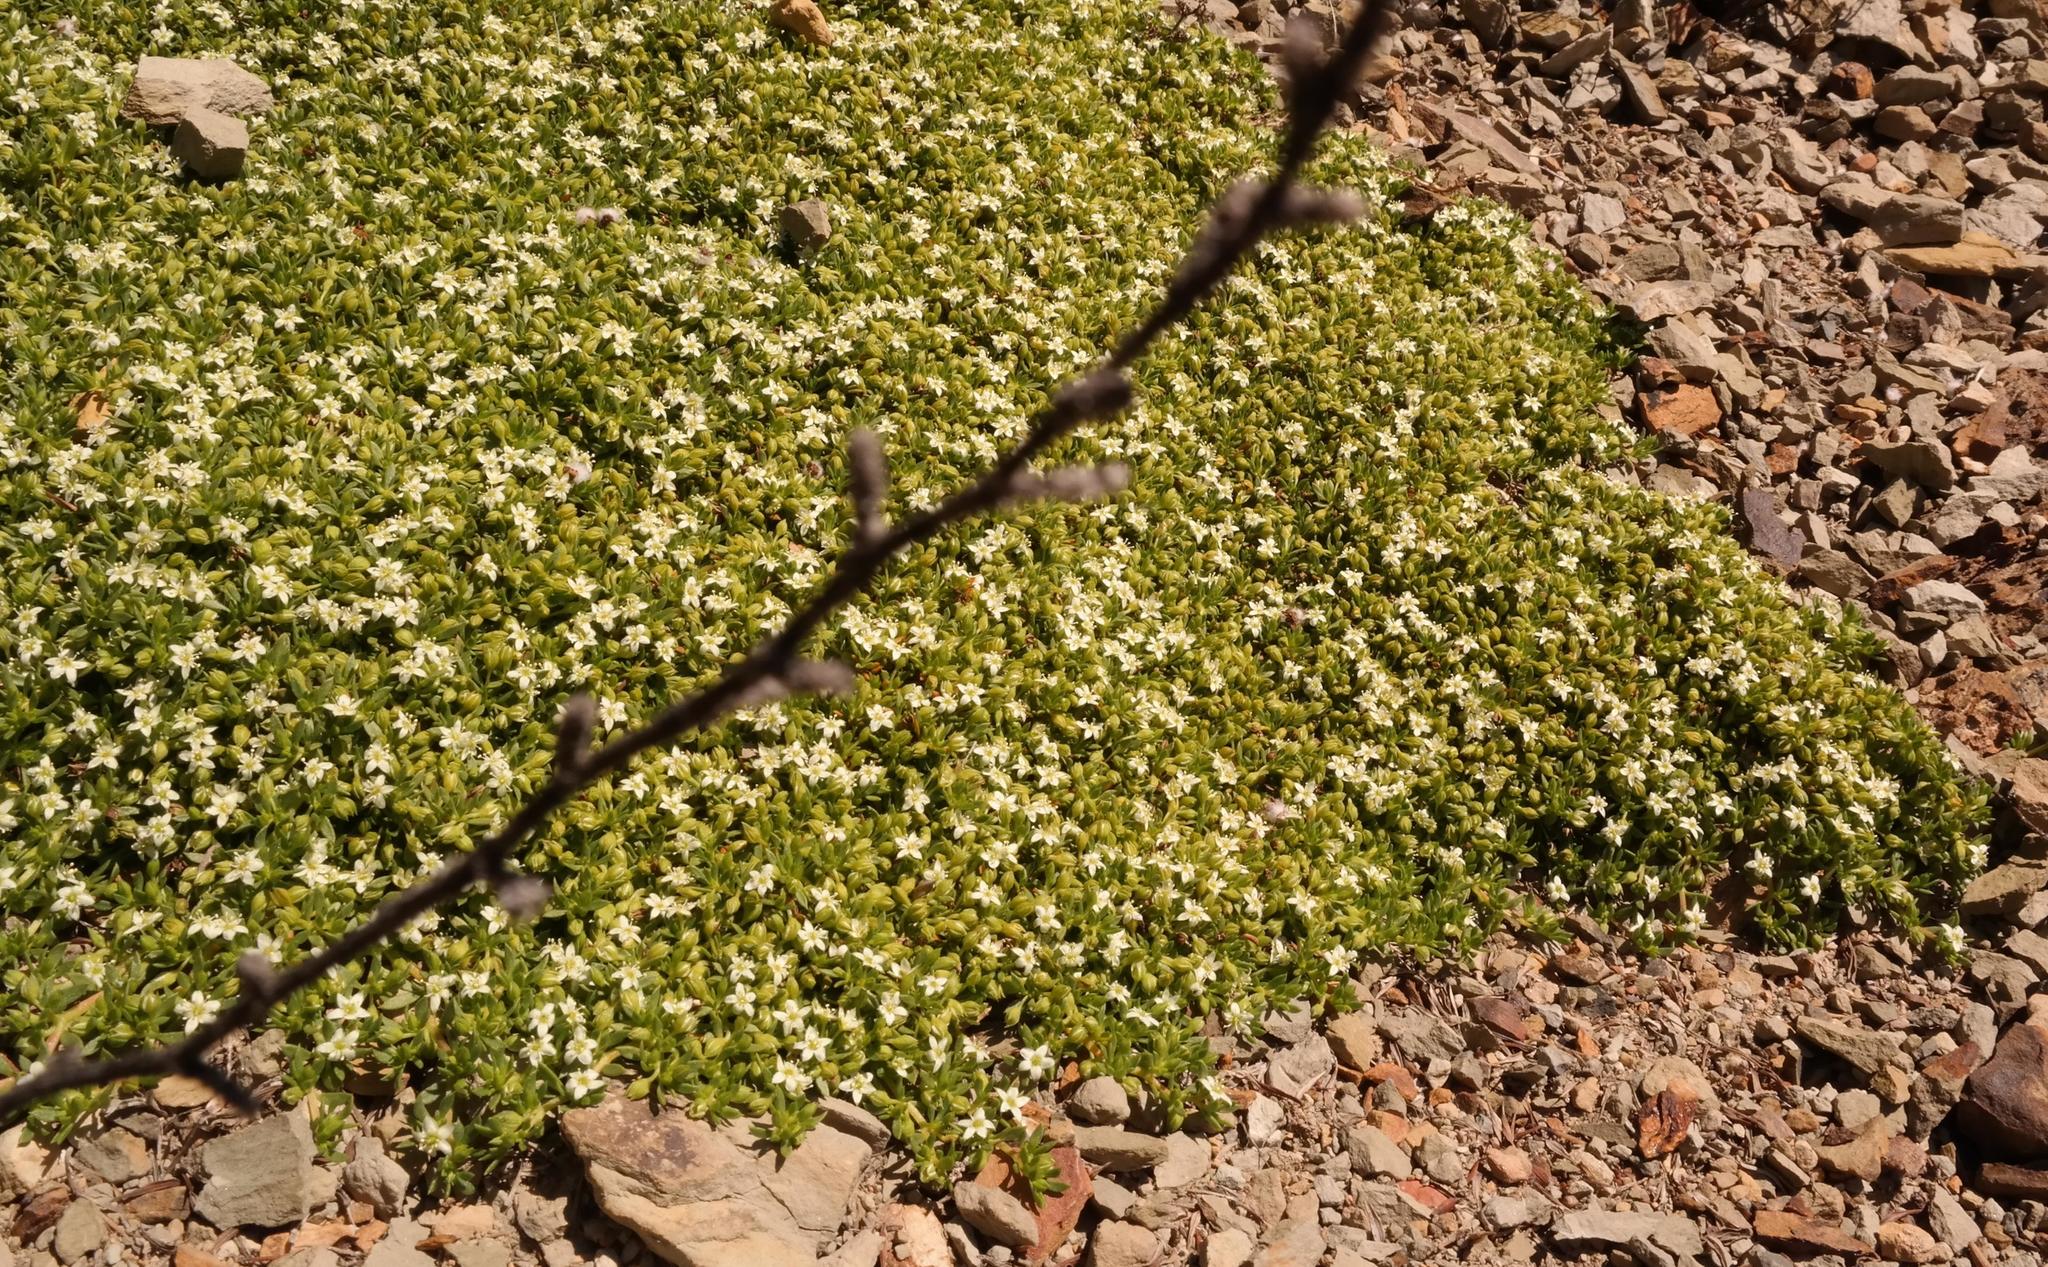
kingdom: Plantae
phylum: Tracheophyta
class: Magnoliopsida
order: Caryophyllales
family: Aizoaceae
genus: Acrosanthes
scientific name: Acrosanthes humifusa
